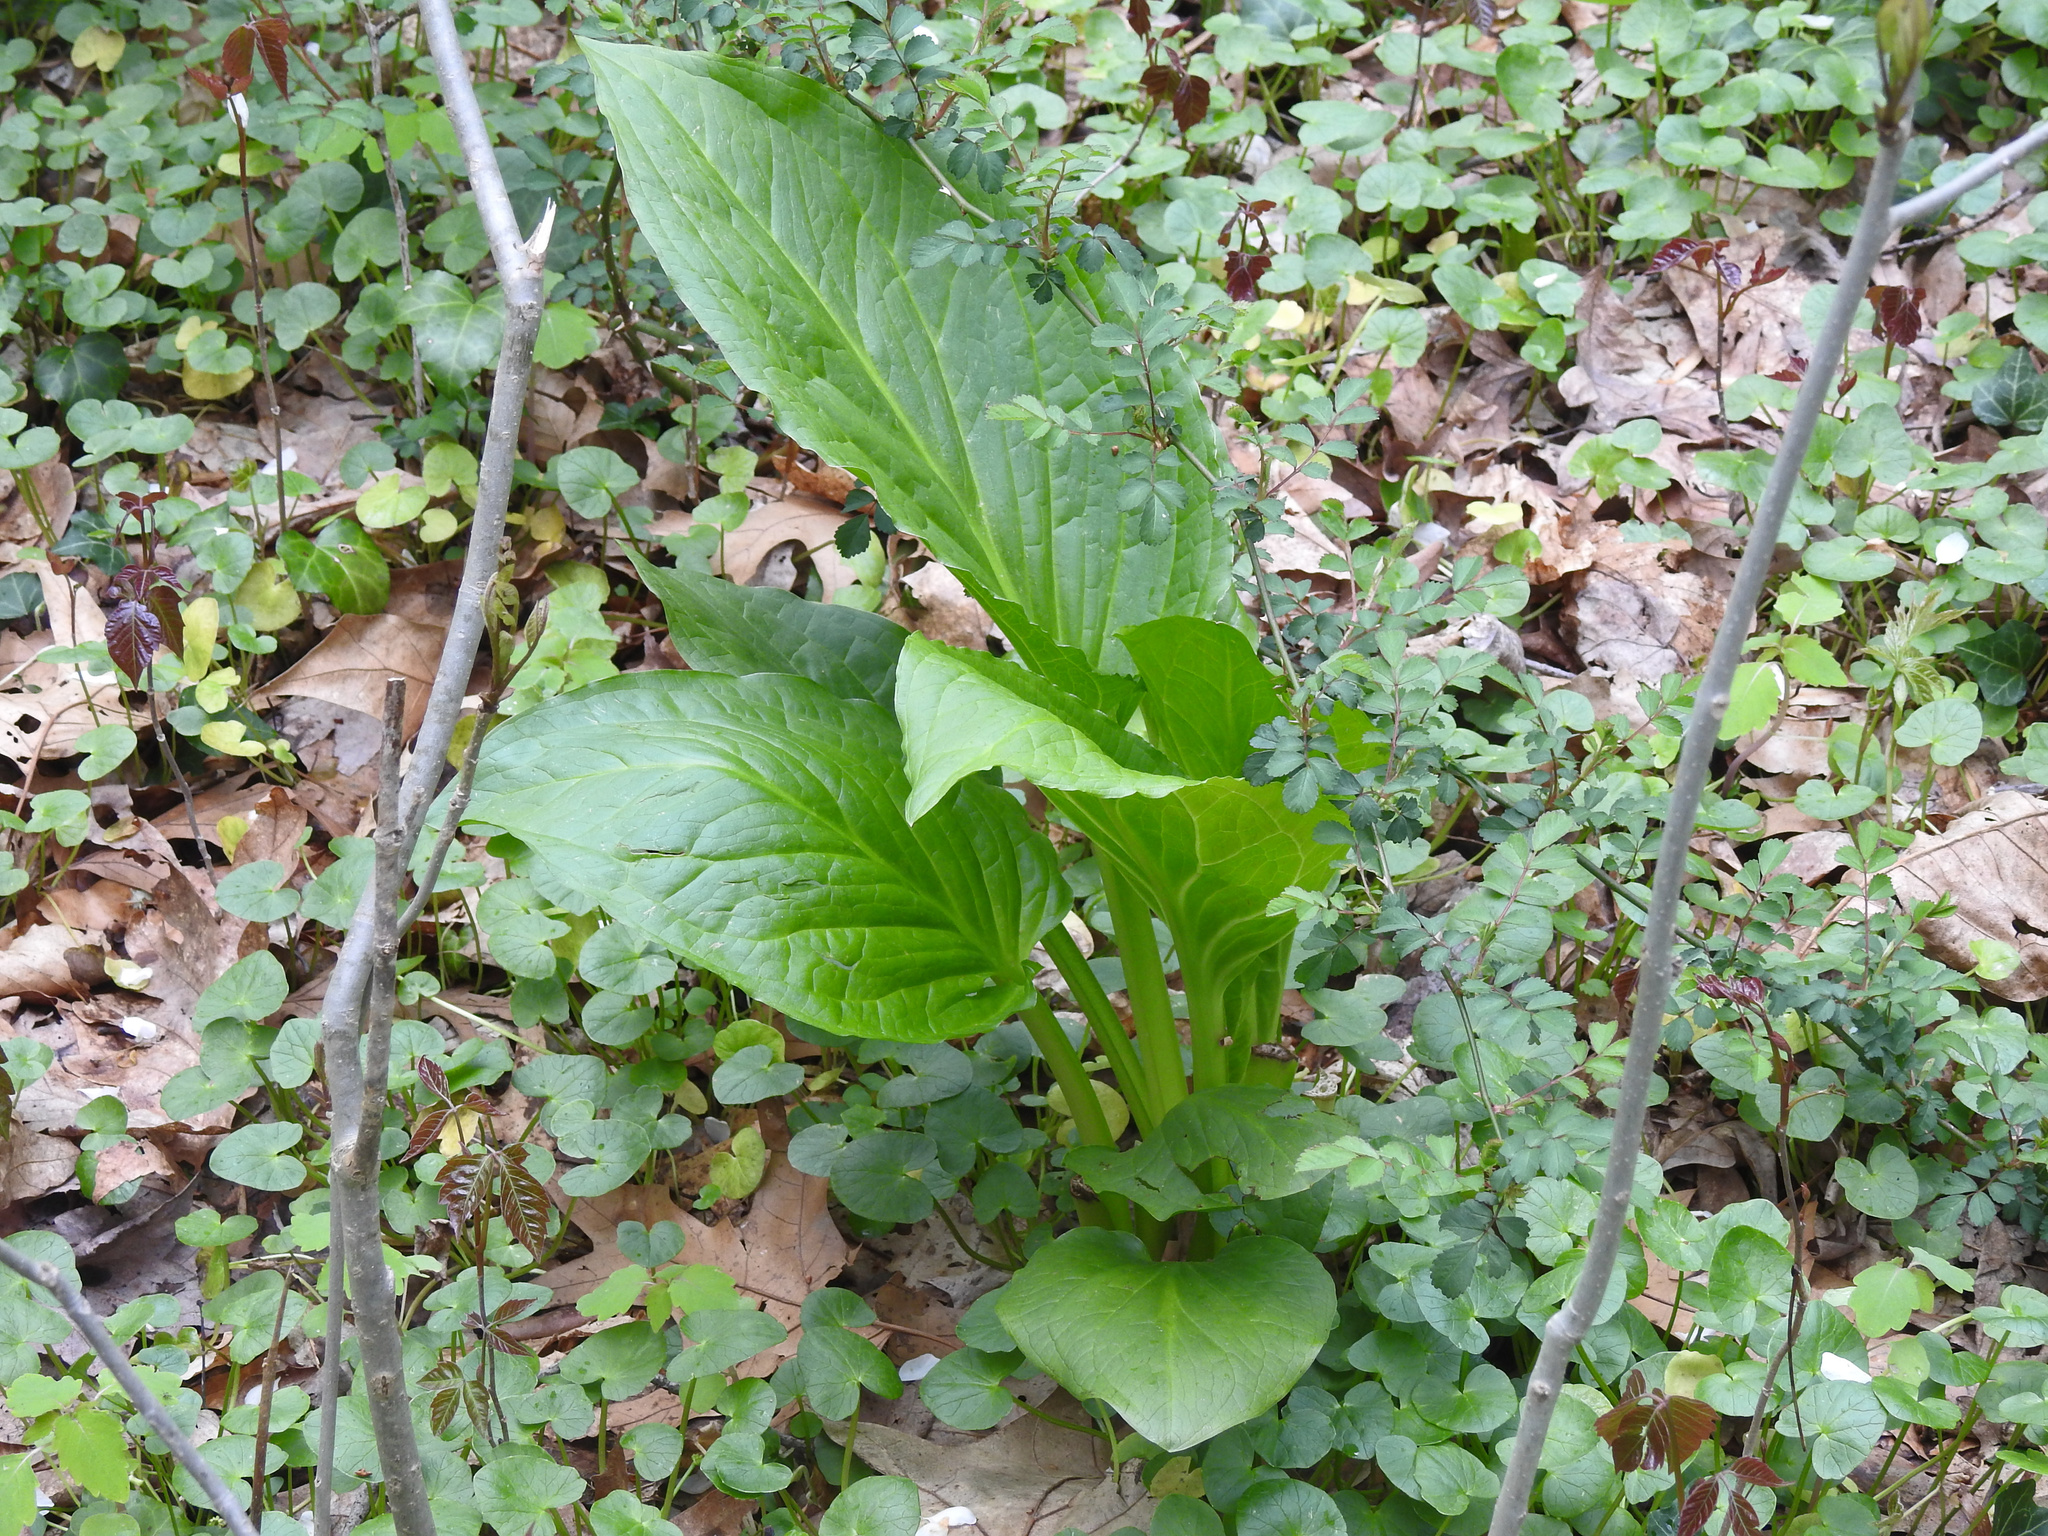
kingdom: Plantae
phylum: Tracheophyta
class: Liliopsida
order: Alismatales
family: Araceae
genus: Symplocarpus
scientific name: Symplocarpus foetidus
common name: Eastern skunk cabbage
